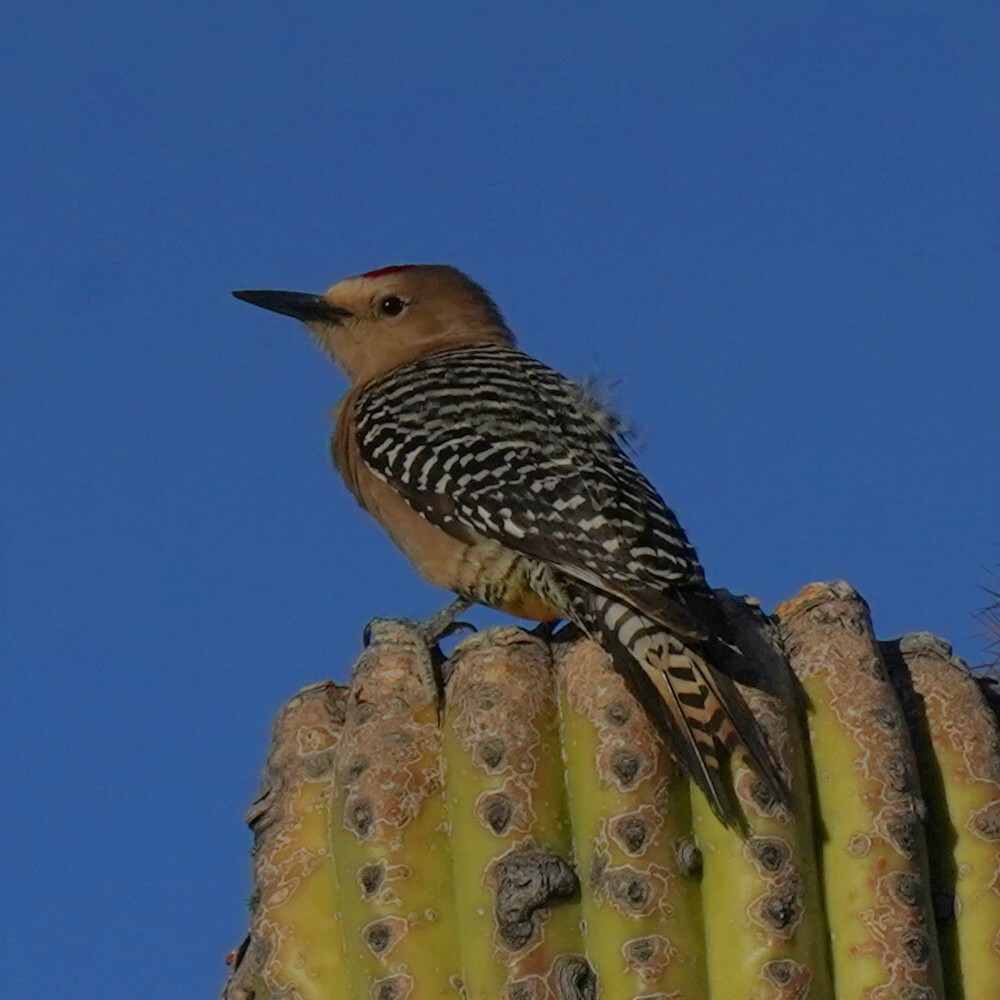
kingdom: Animalia
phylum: Chordata
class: Aves
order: Piciformes
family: Picidae
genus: Melanerpes
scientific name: Melanerpes uropygialis
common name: Gila woodpecker
